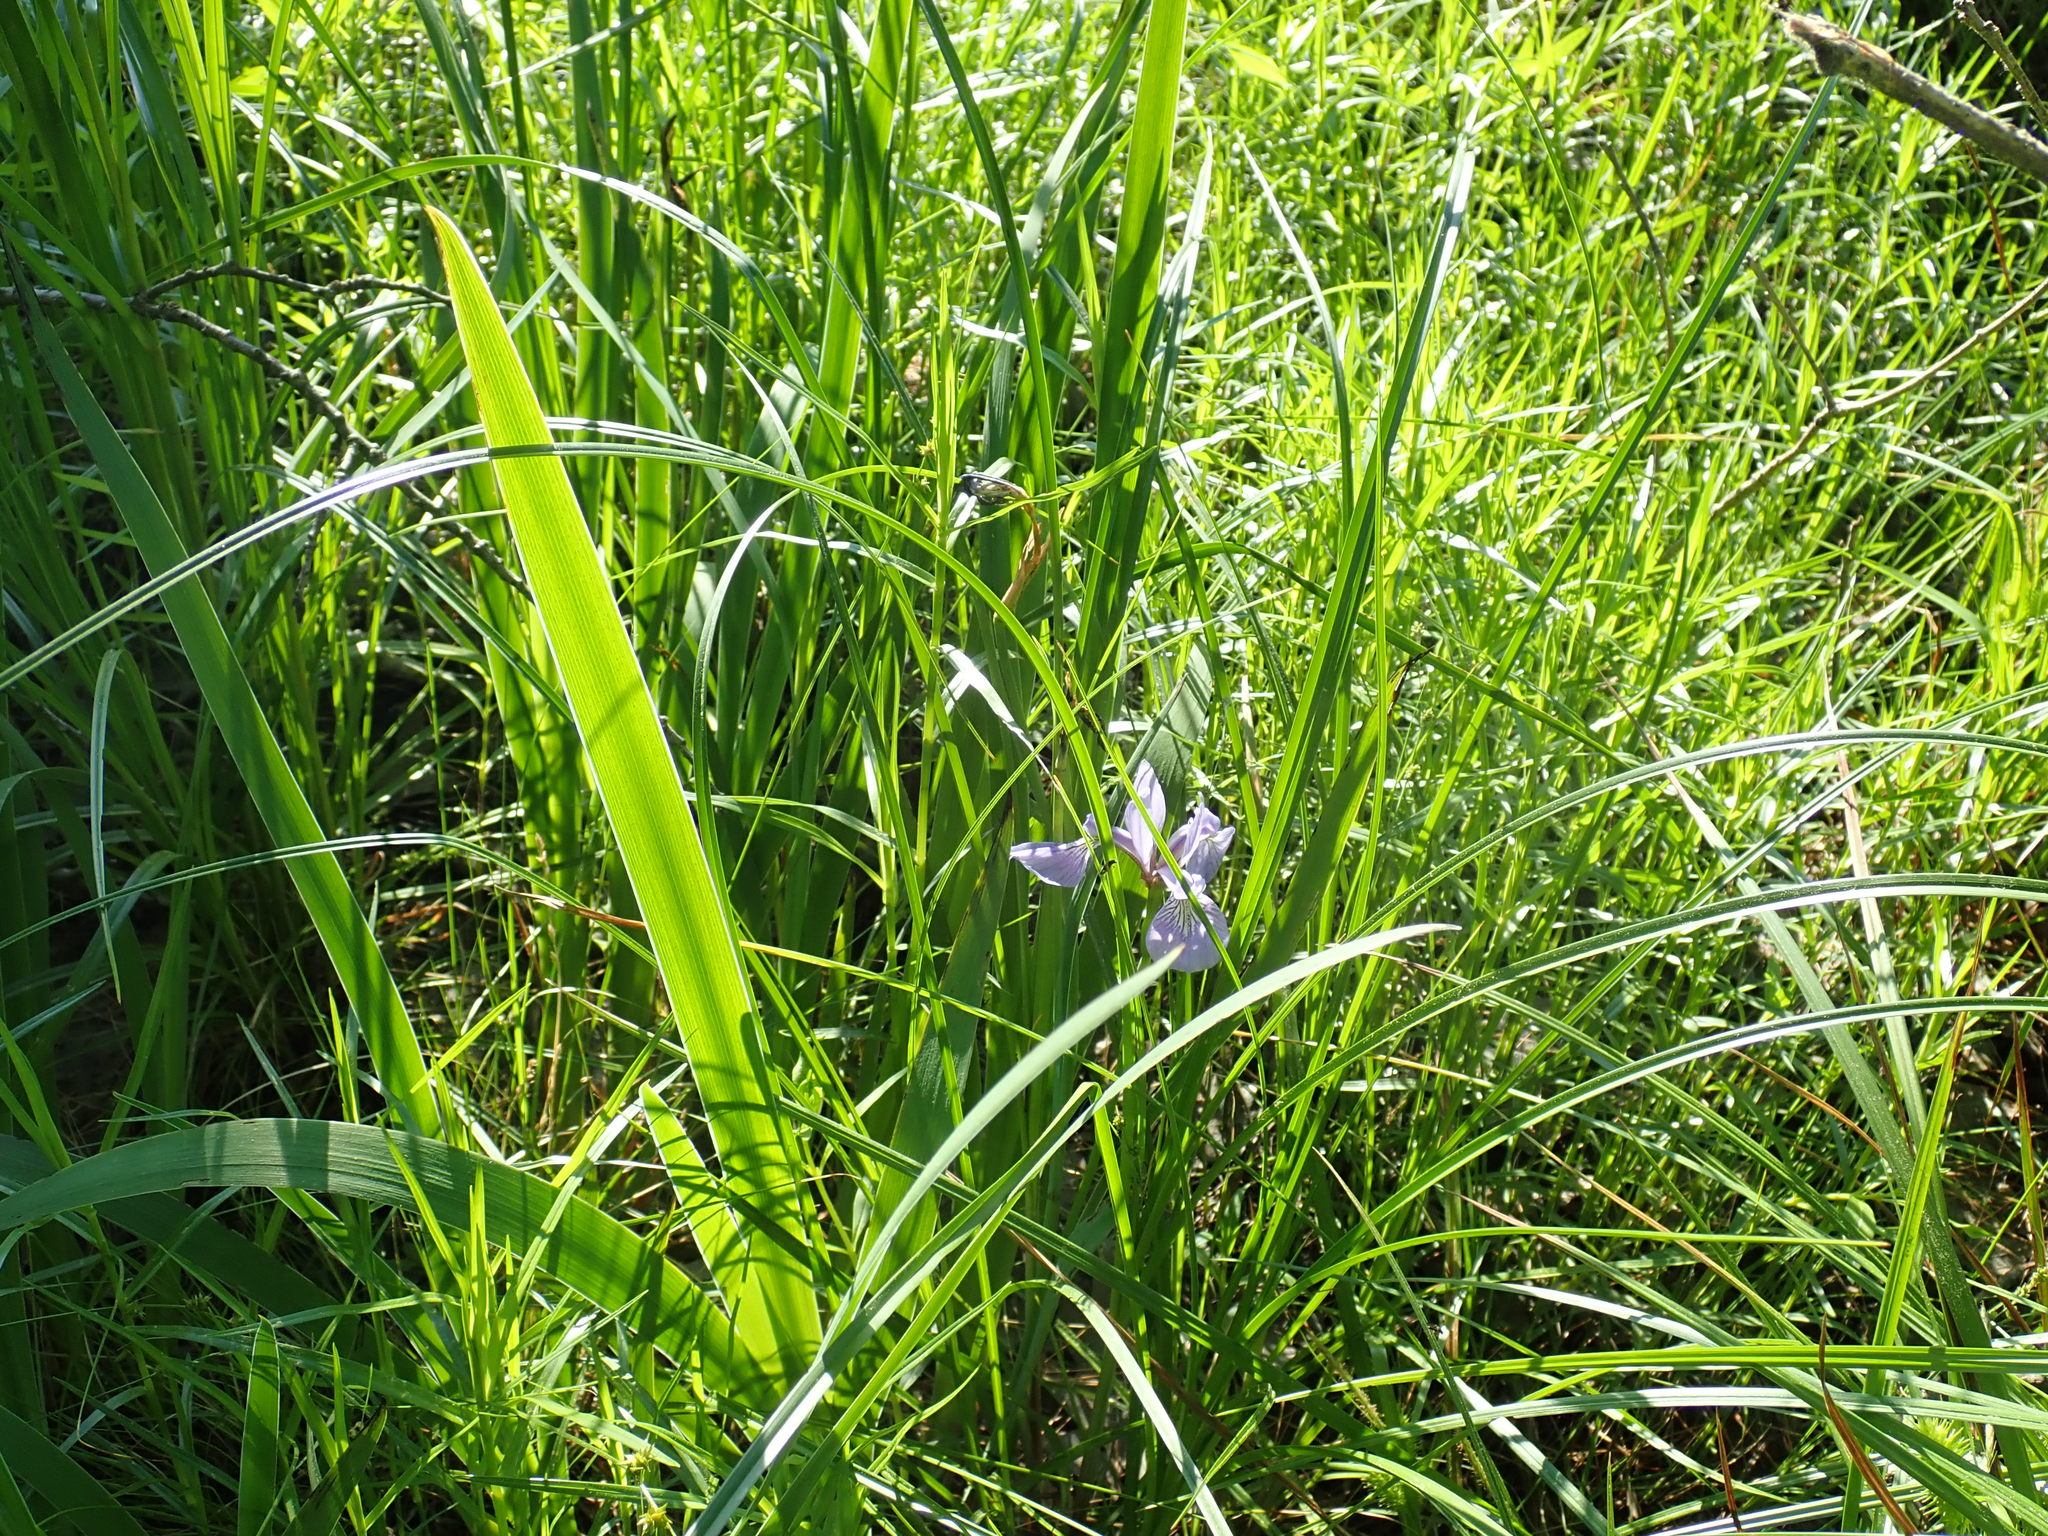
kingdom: Plantae
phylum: Tracheophyta
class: Liliopsida
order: Asparagales
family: Iridaceae
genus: Iris
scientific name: Iris versicolor
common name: Purple iris
